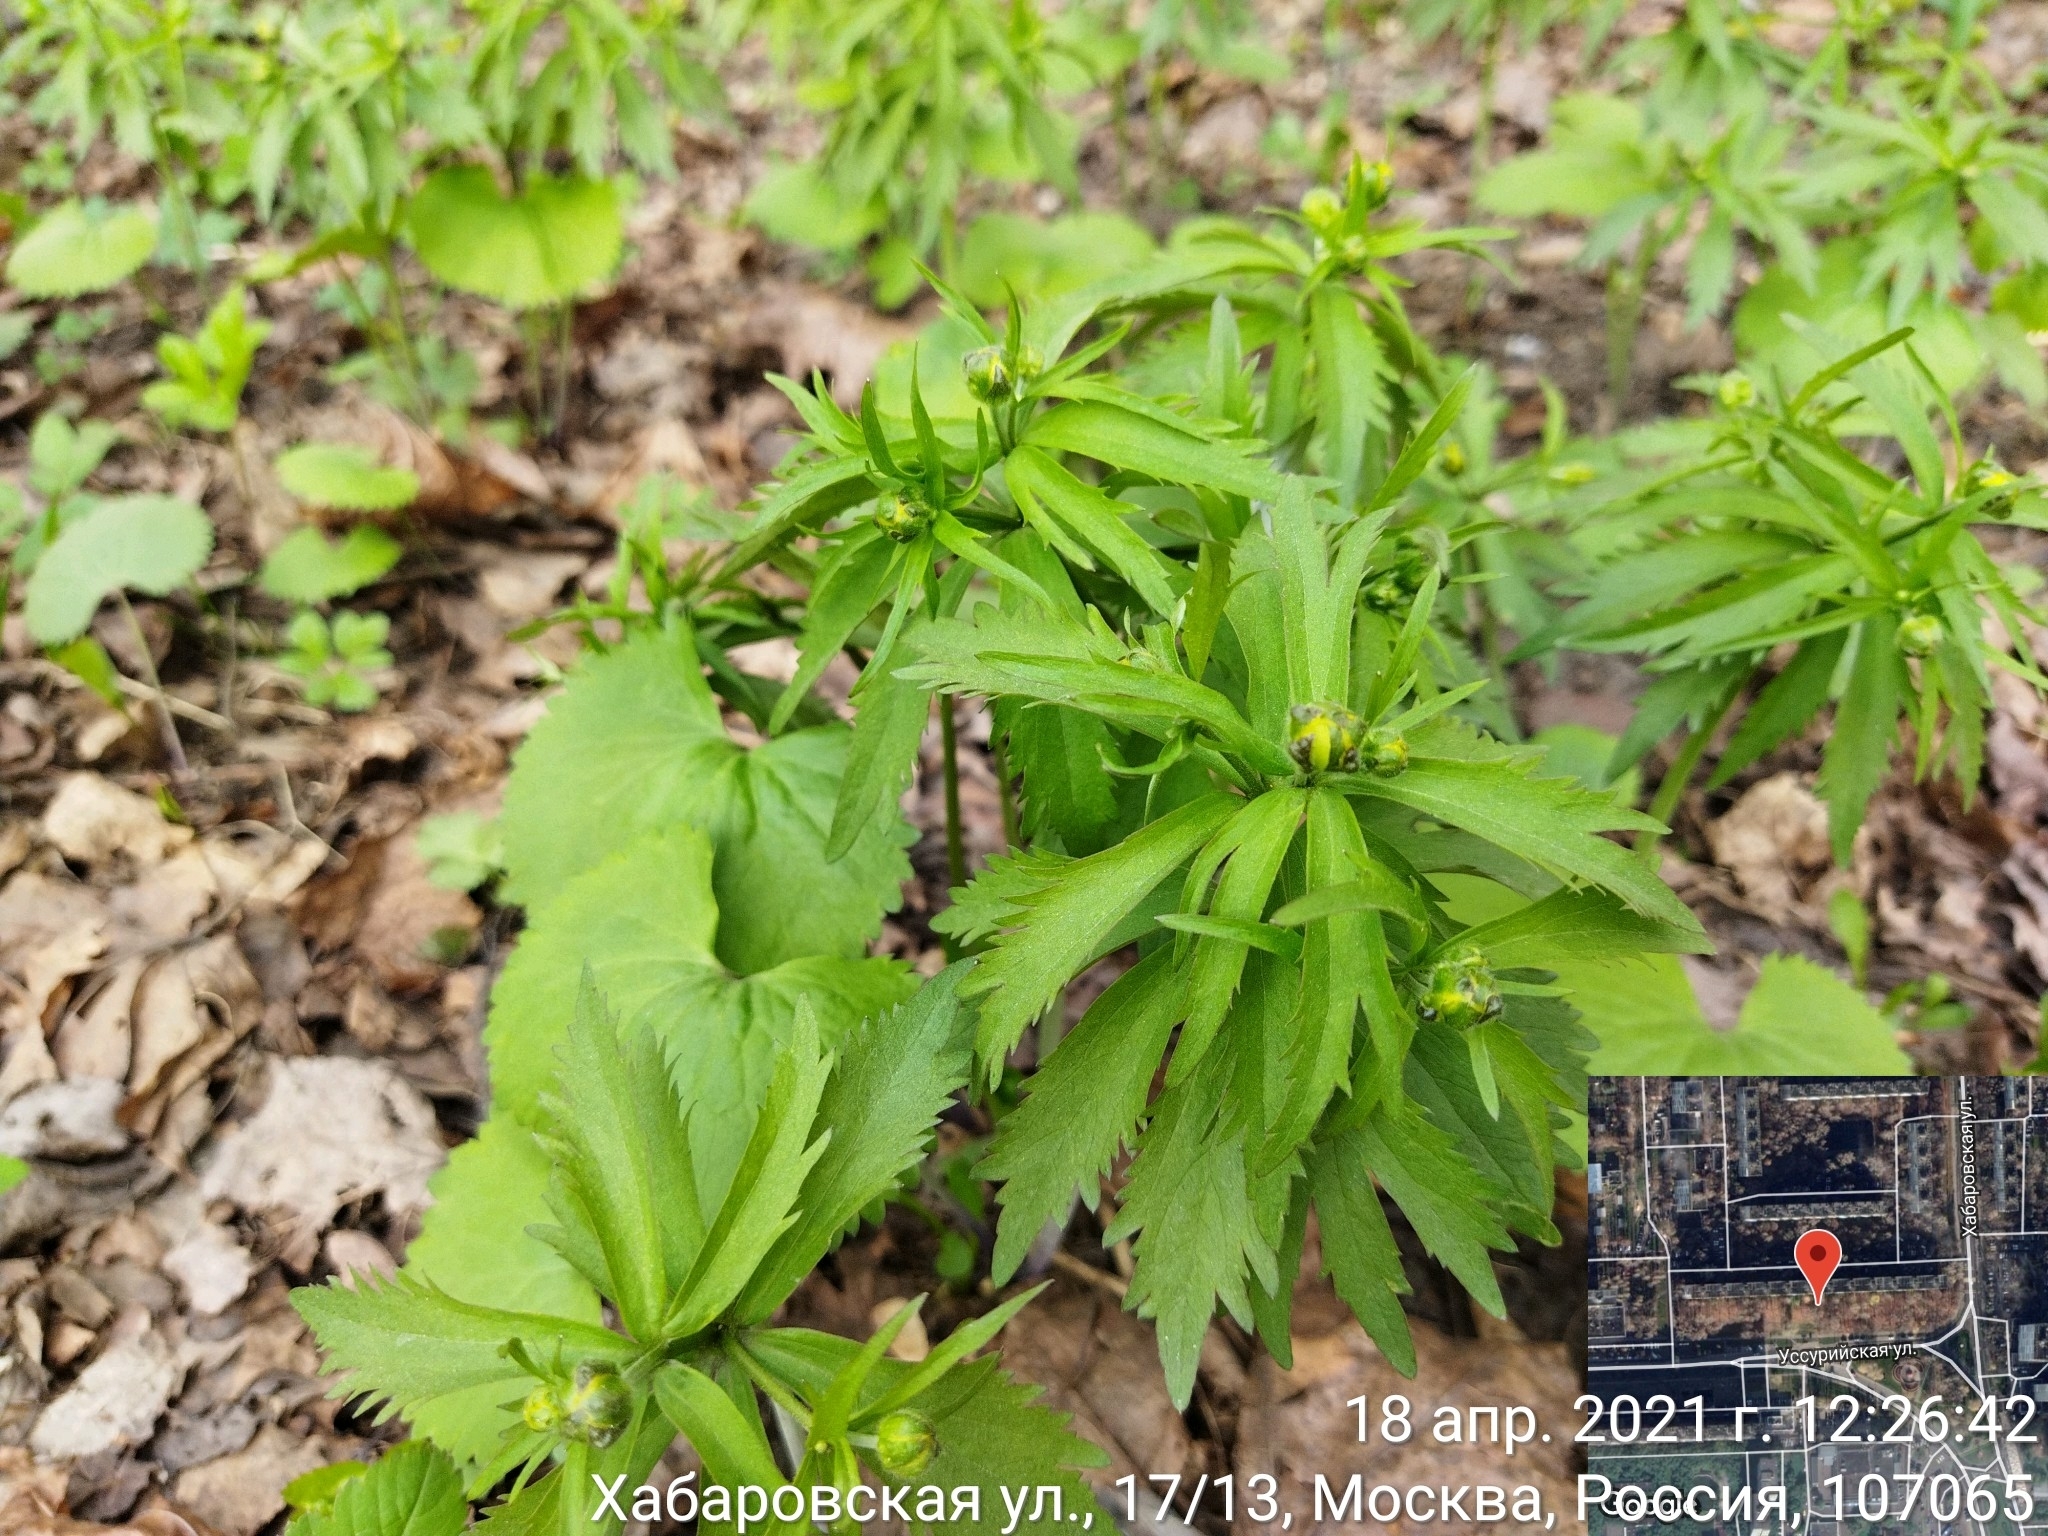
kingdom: Plantae
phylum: Tracheophyta
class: Magnoliopsida
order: Ranunculales
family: Ranunculaceae
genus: Anemone
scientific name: Anemone ranunculoides
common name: Yellow anemone
